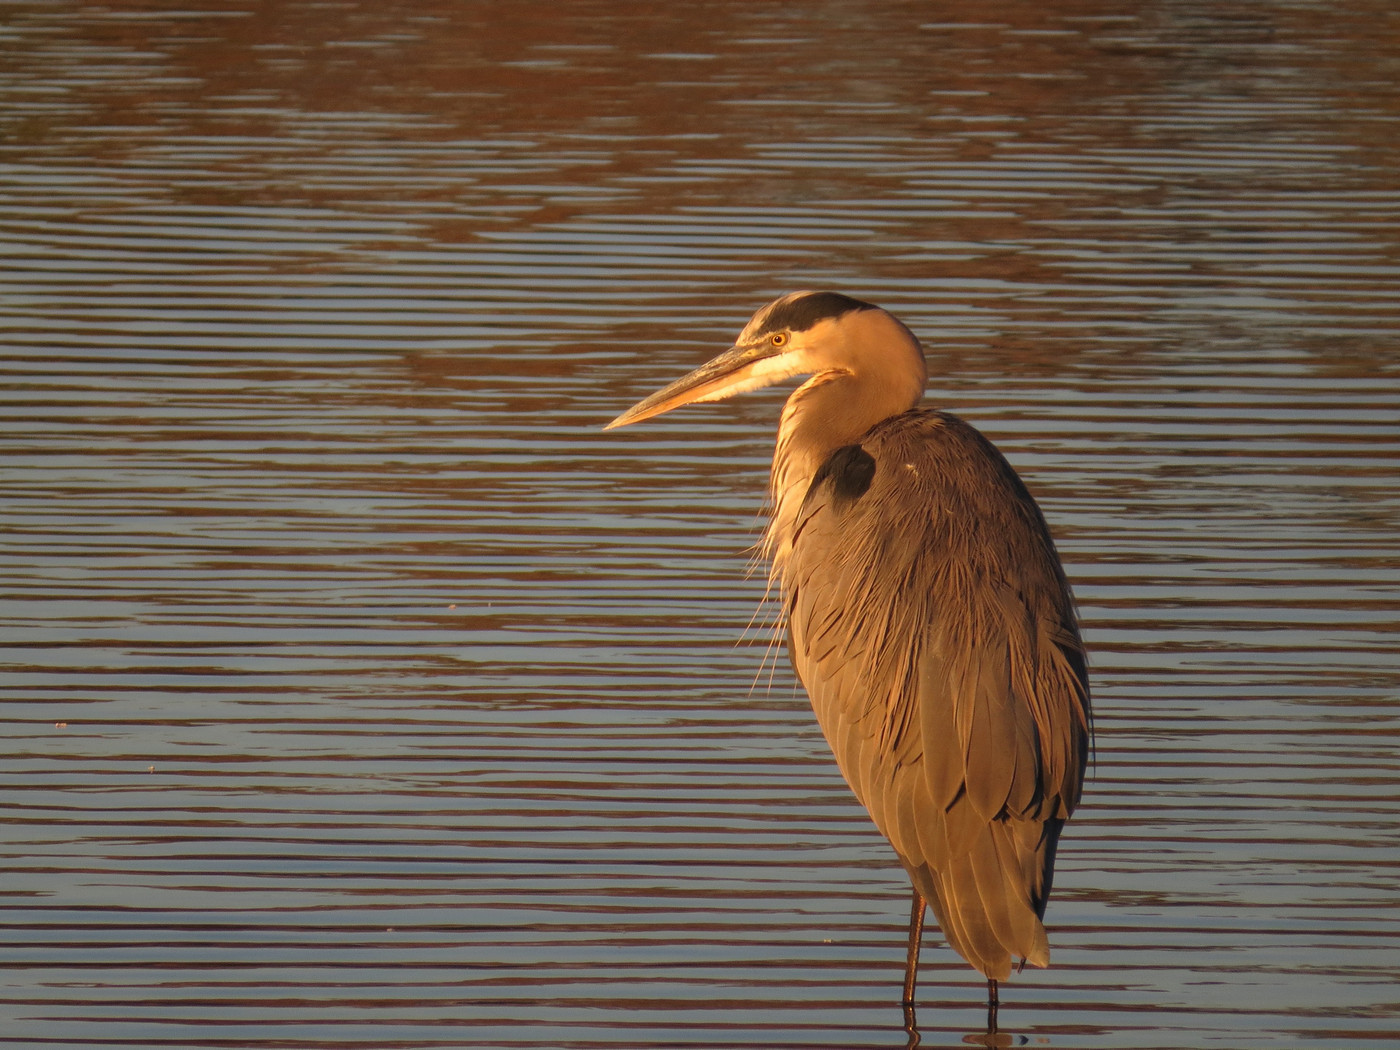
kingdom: Animalia
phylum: Chordata
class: Aves
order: Pelecaniformes
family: Ardeidae
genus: Ardea
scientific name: Ardea herodias
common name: Great blue heron
